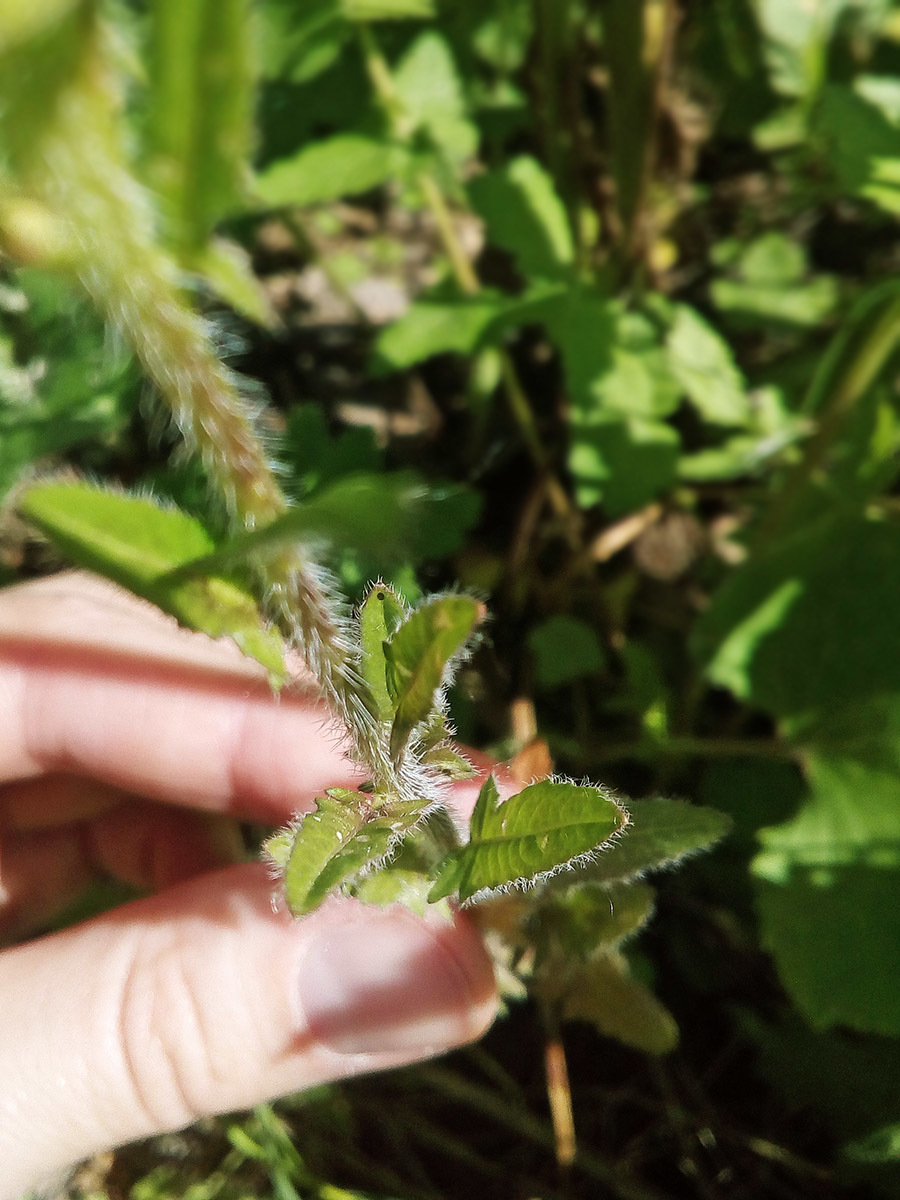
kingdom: Plantae
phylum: Tracheophyta
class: Magnoliopsida
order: Brassicales
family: Brassicaceae
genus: Sisymbrium
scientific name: Sisymbrium loeselii
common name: False london-rocket
